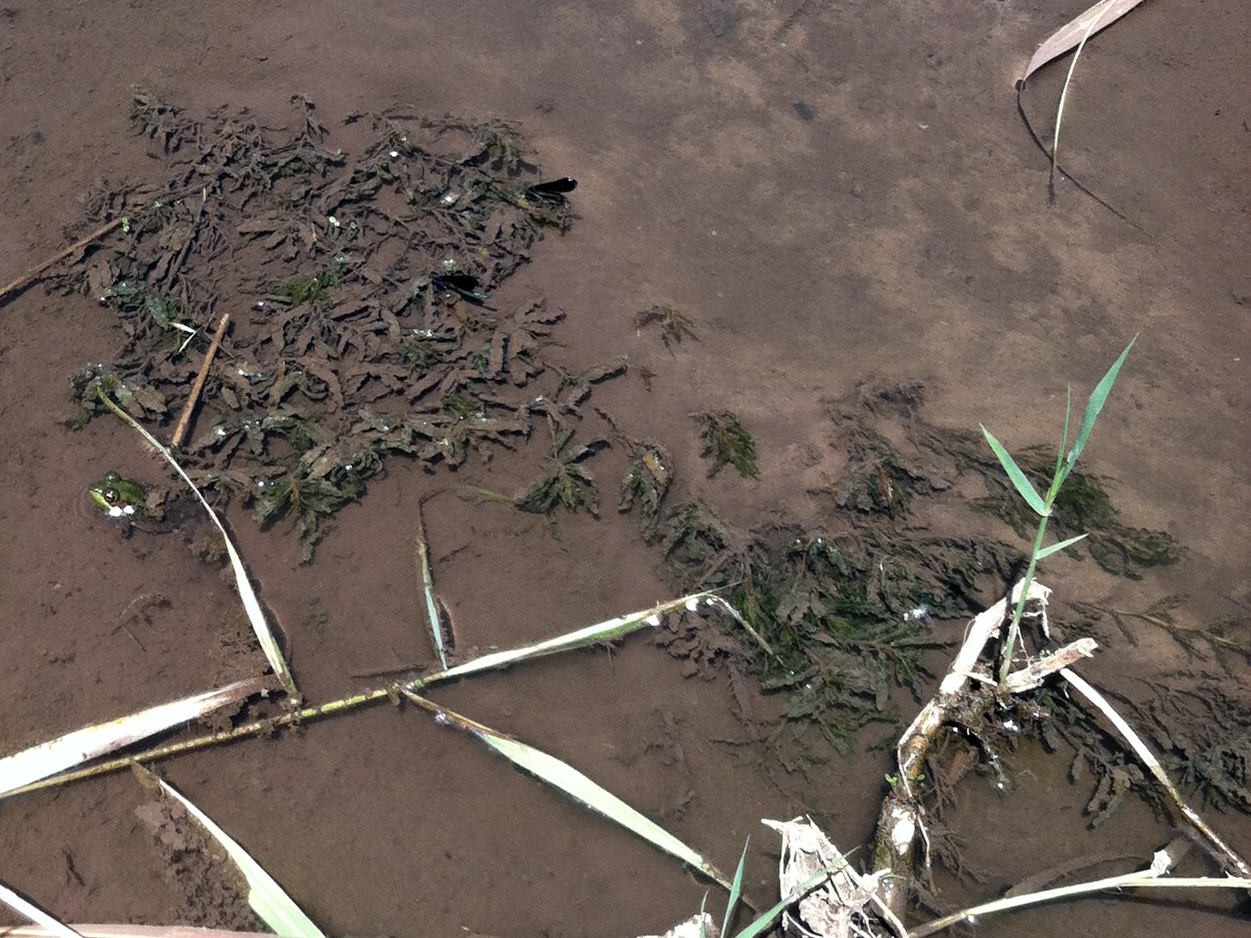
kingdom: Plantae
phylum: Tracheophyta
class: Liliopsida
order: Alismatales
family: Potamogetonaceae
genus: Potamogeton
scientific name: Potamogeton crispus
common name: Curled pondweed
